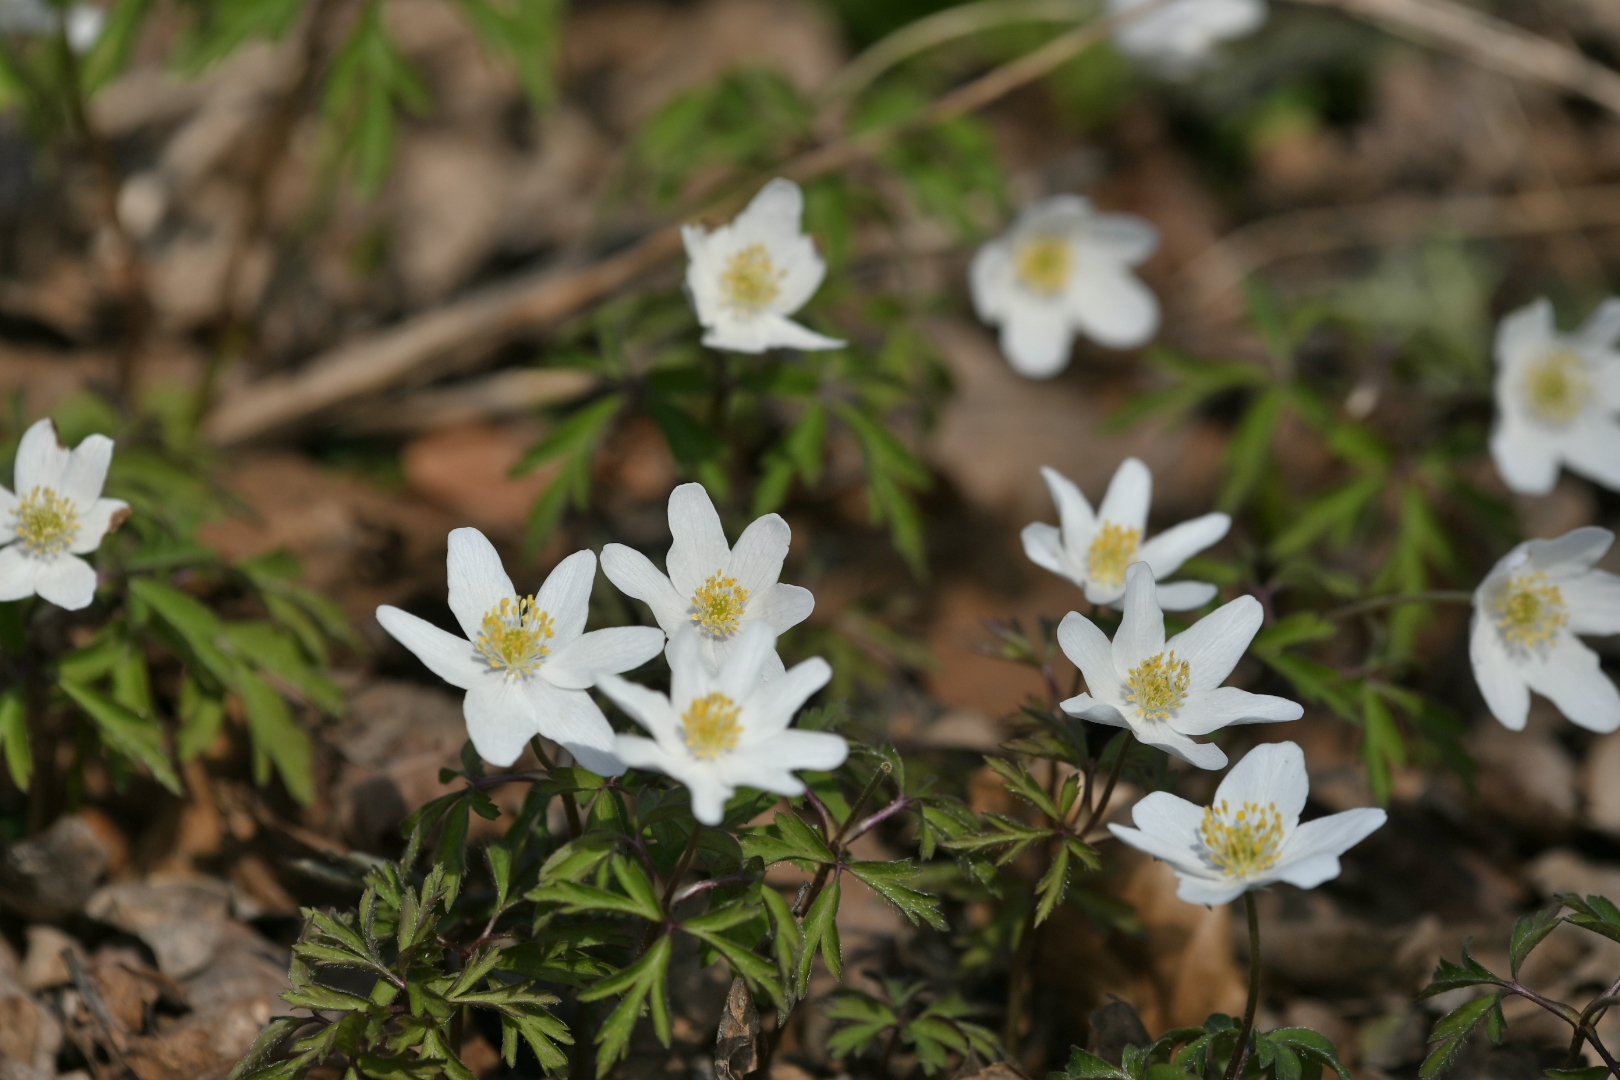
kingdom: Plantae
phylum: Tracheophyta
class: Magnoliopsida
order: Ranunculales
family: Ranunculaceae
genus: Anemone
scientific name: Anemone nemorosa
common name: Wood anemone
